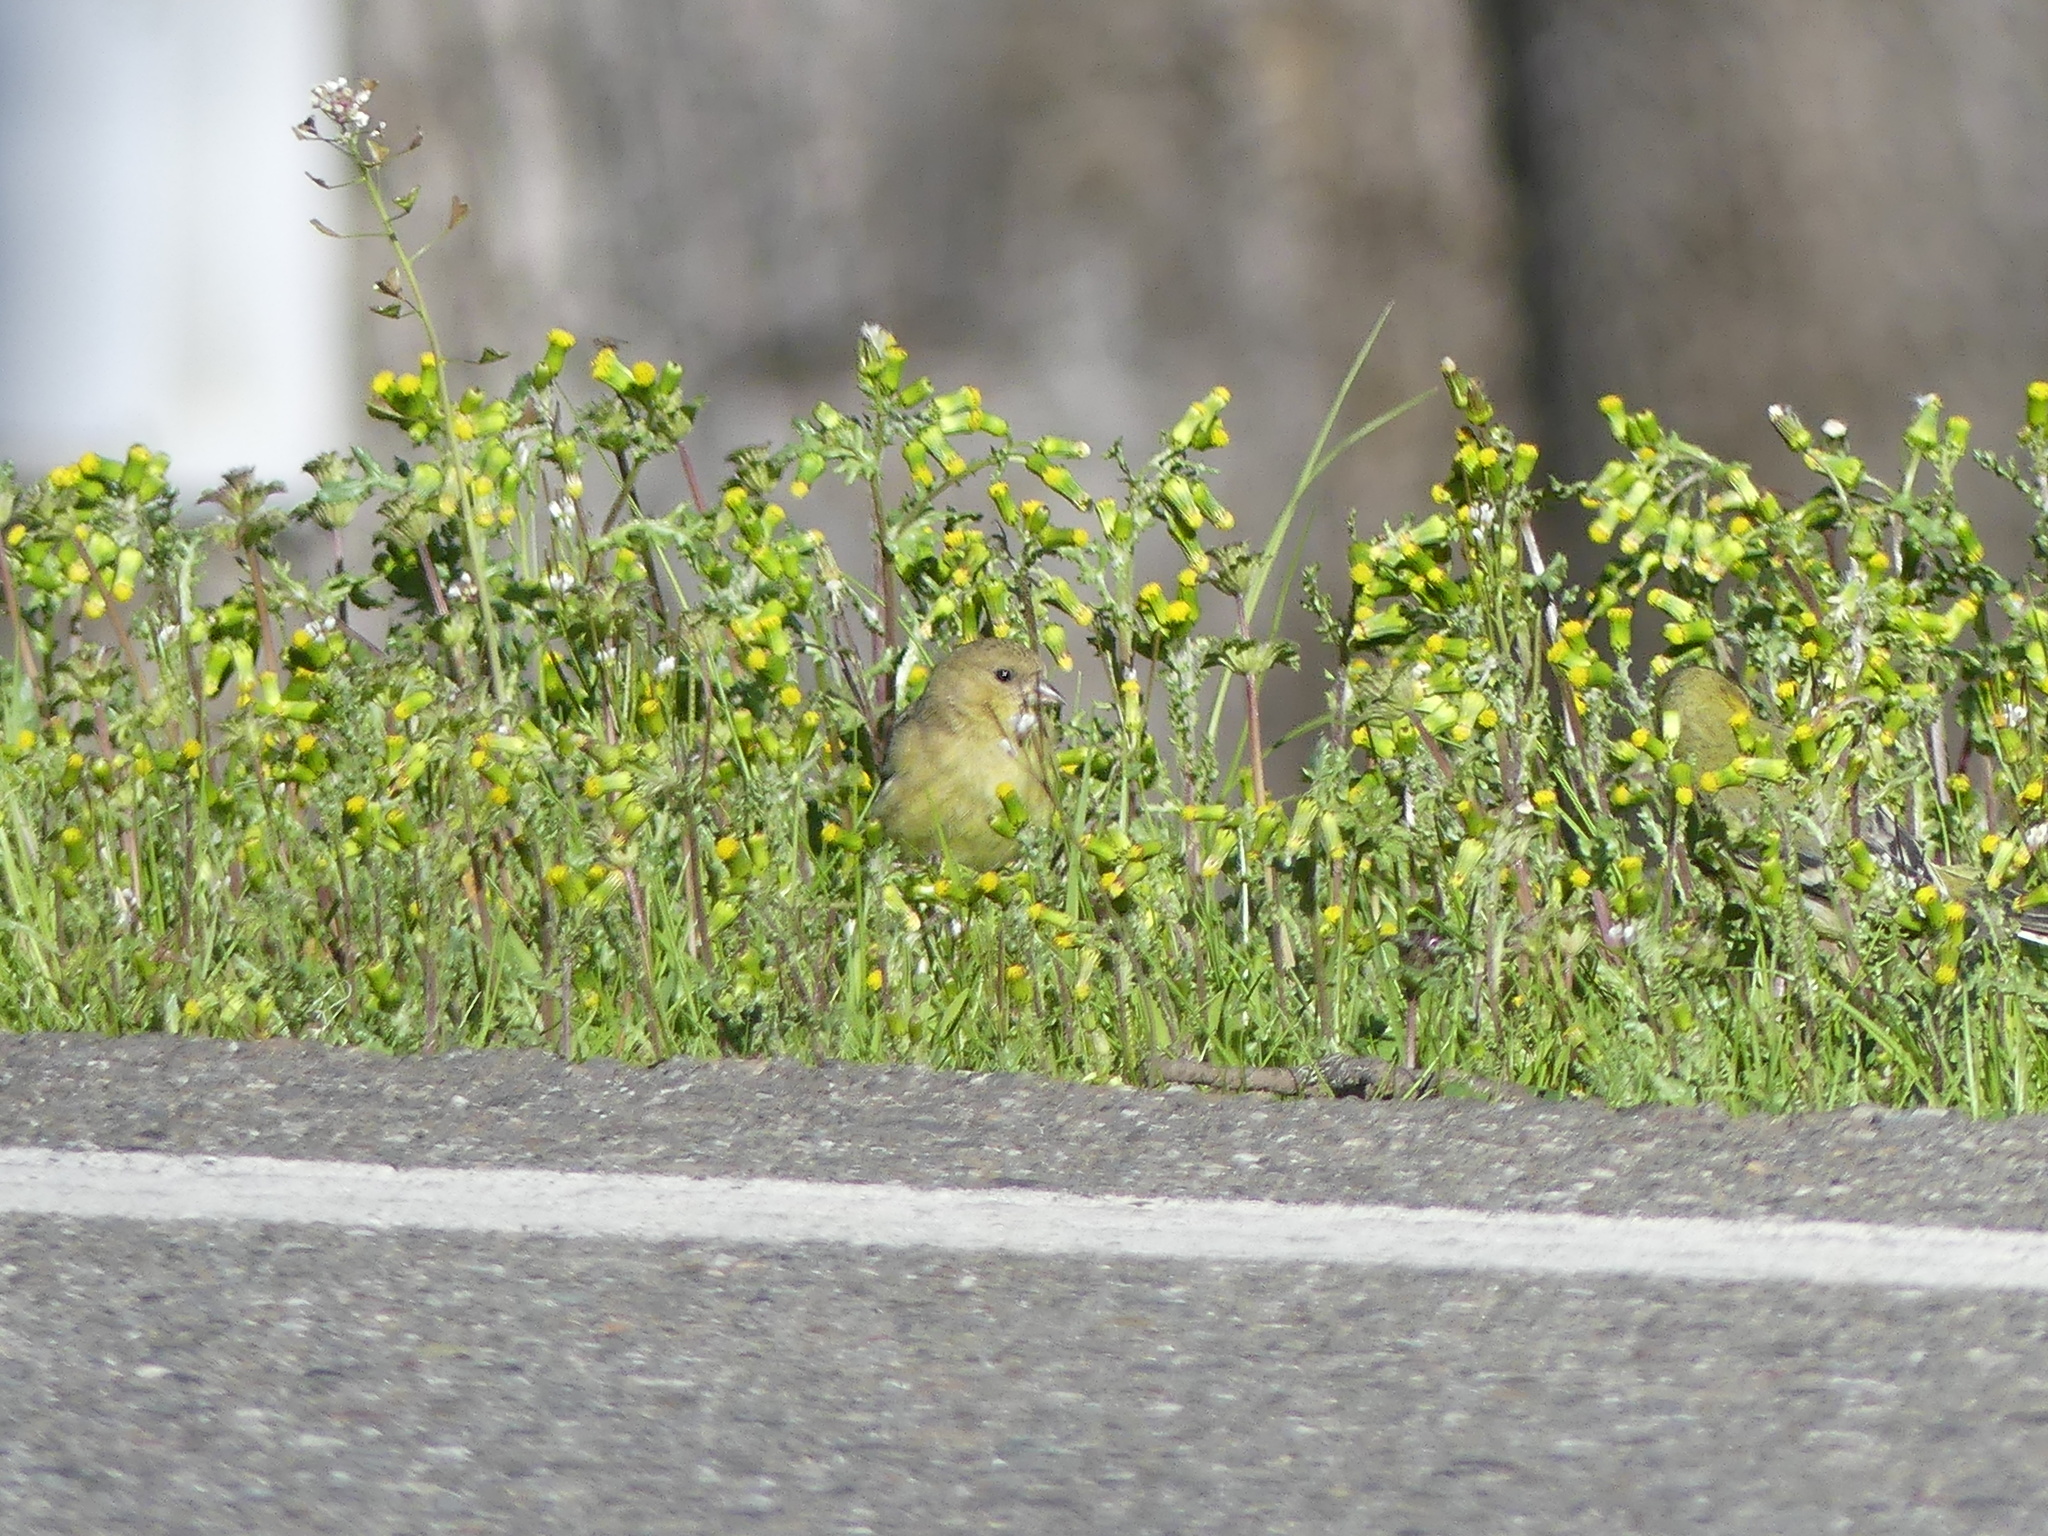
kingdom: Animalia
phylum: Chordata
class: Aves
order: Passeriformes
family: Fringillidae
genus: Spinus
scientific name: Spinus psaltria
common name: Lesser goldfinch
